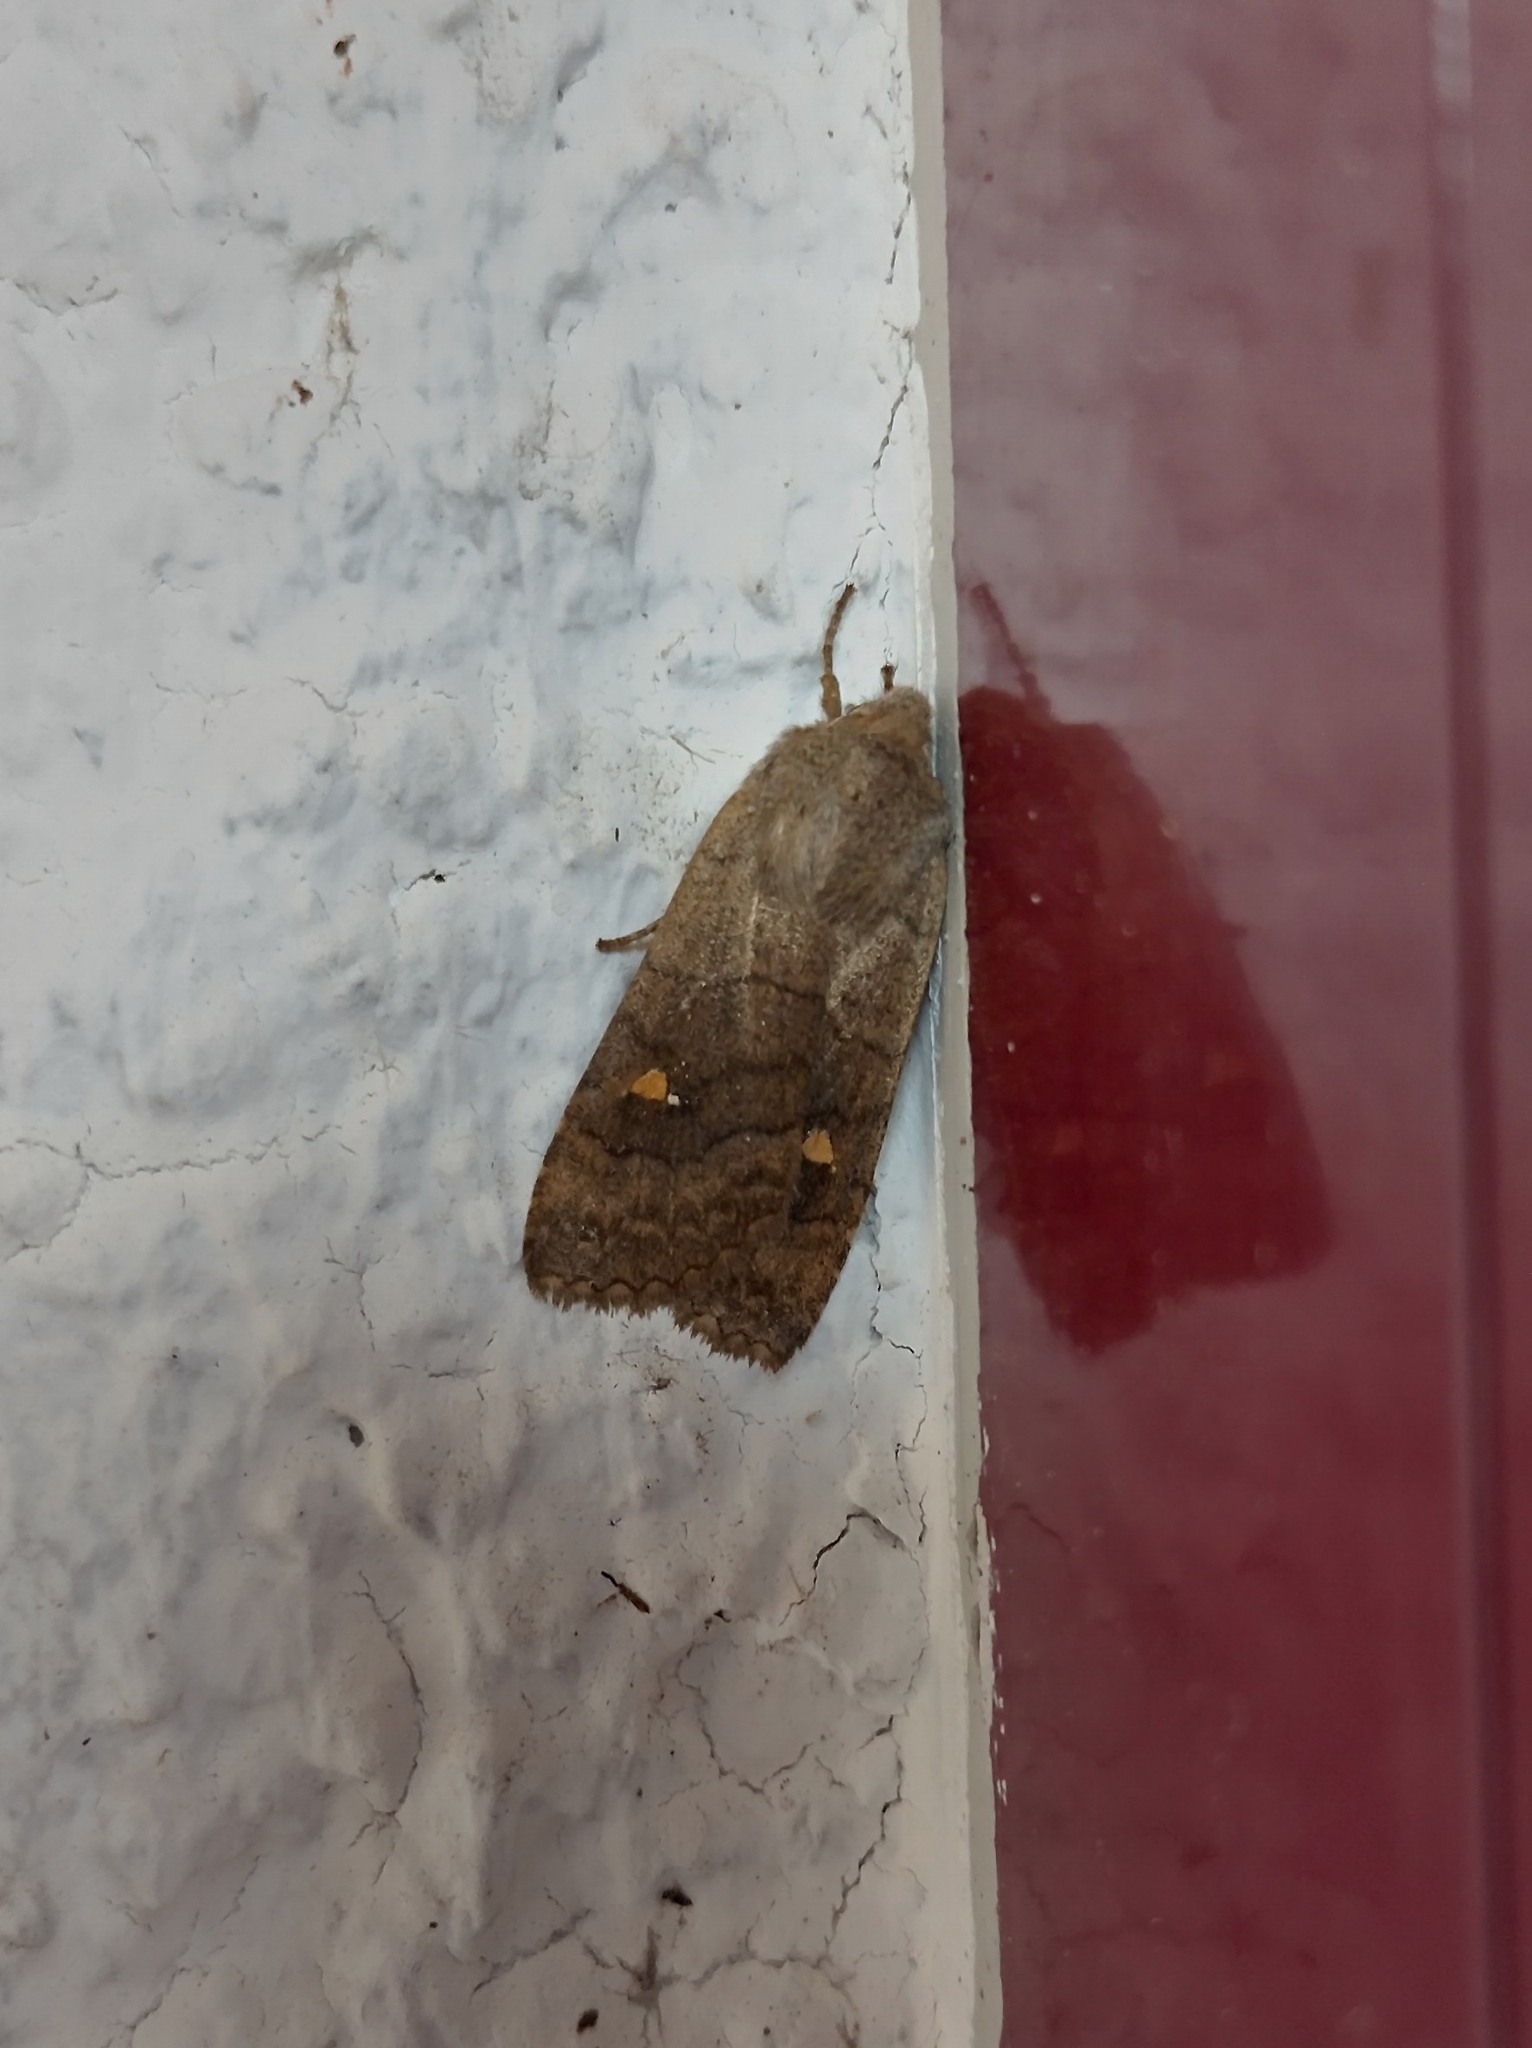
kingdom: Animalia
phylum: Arthropoda
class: Insecta
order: Lepidoptera
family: Noctuidae
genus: Eupsilia
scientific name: Eupsilia transversa
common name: Satellite
